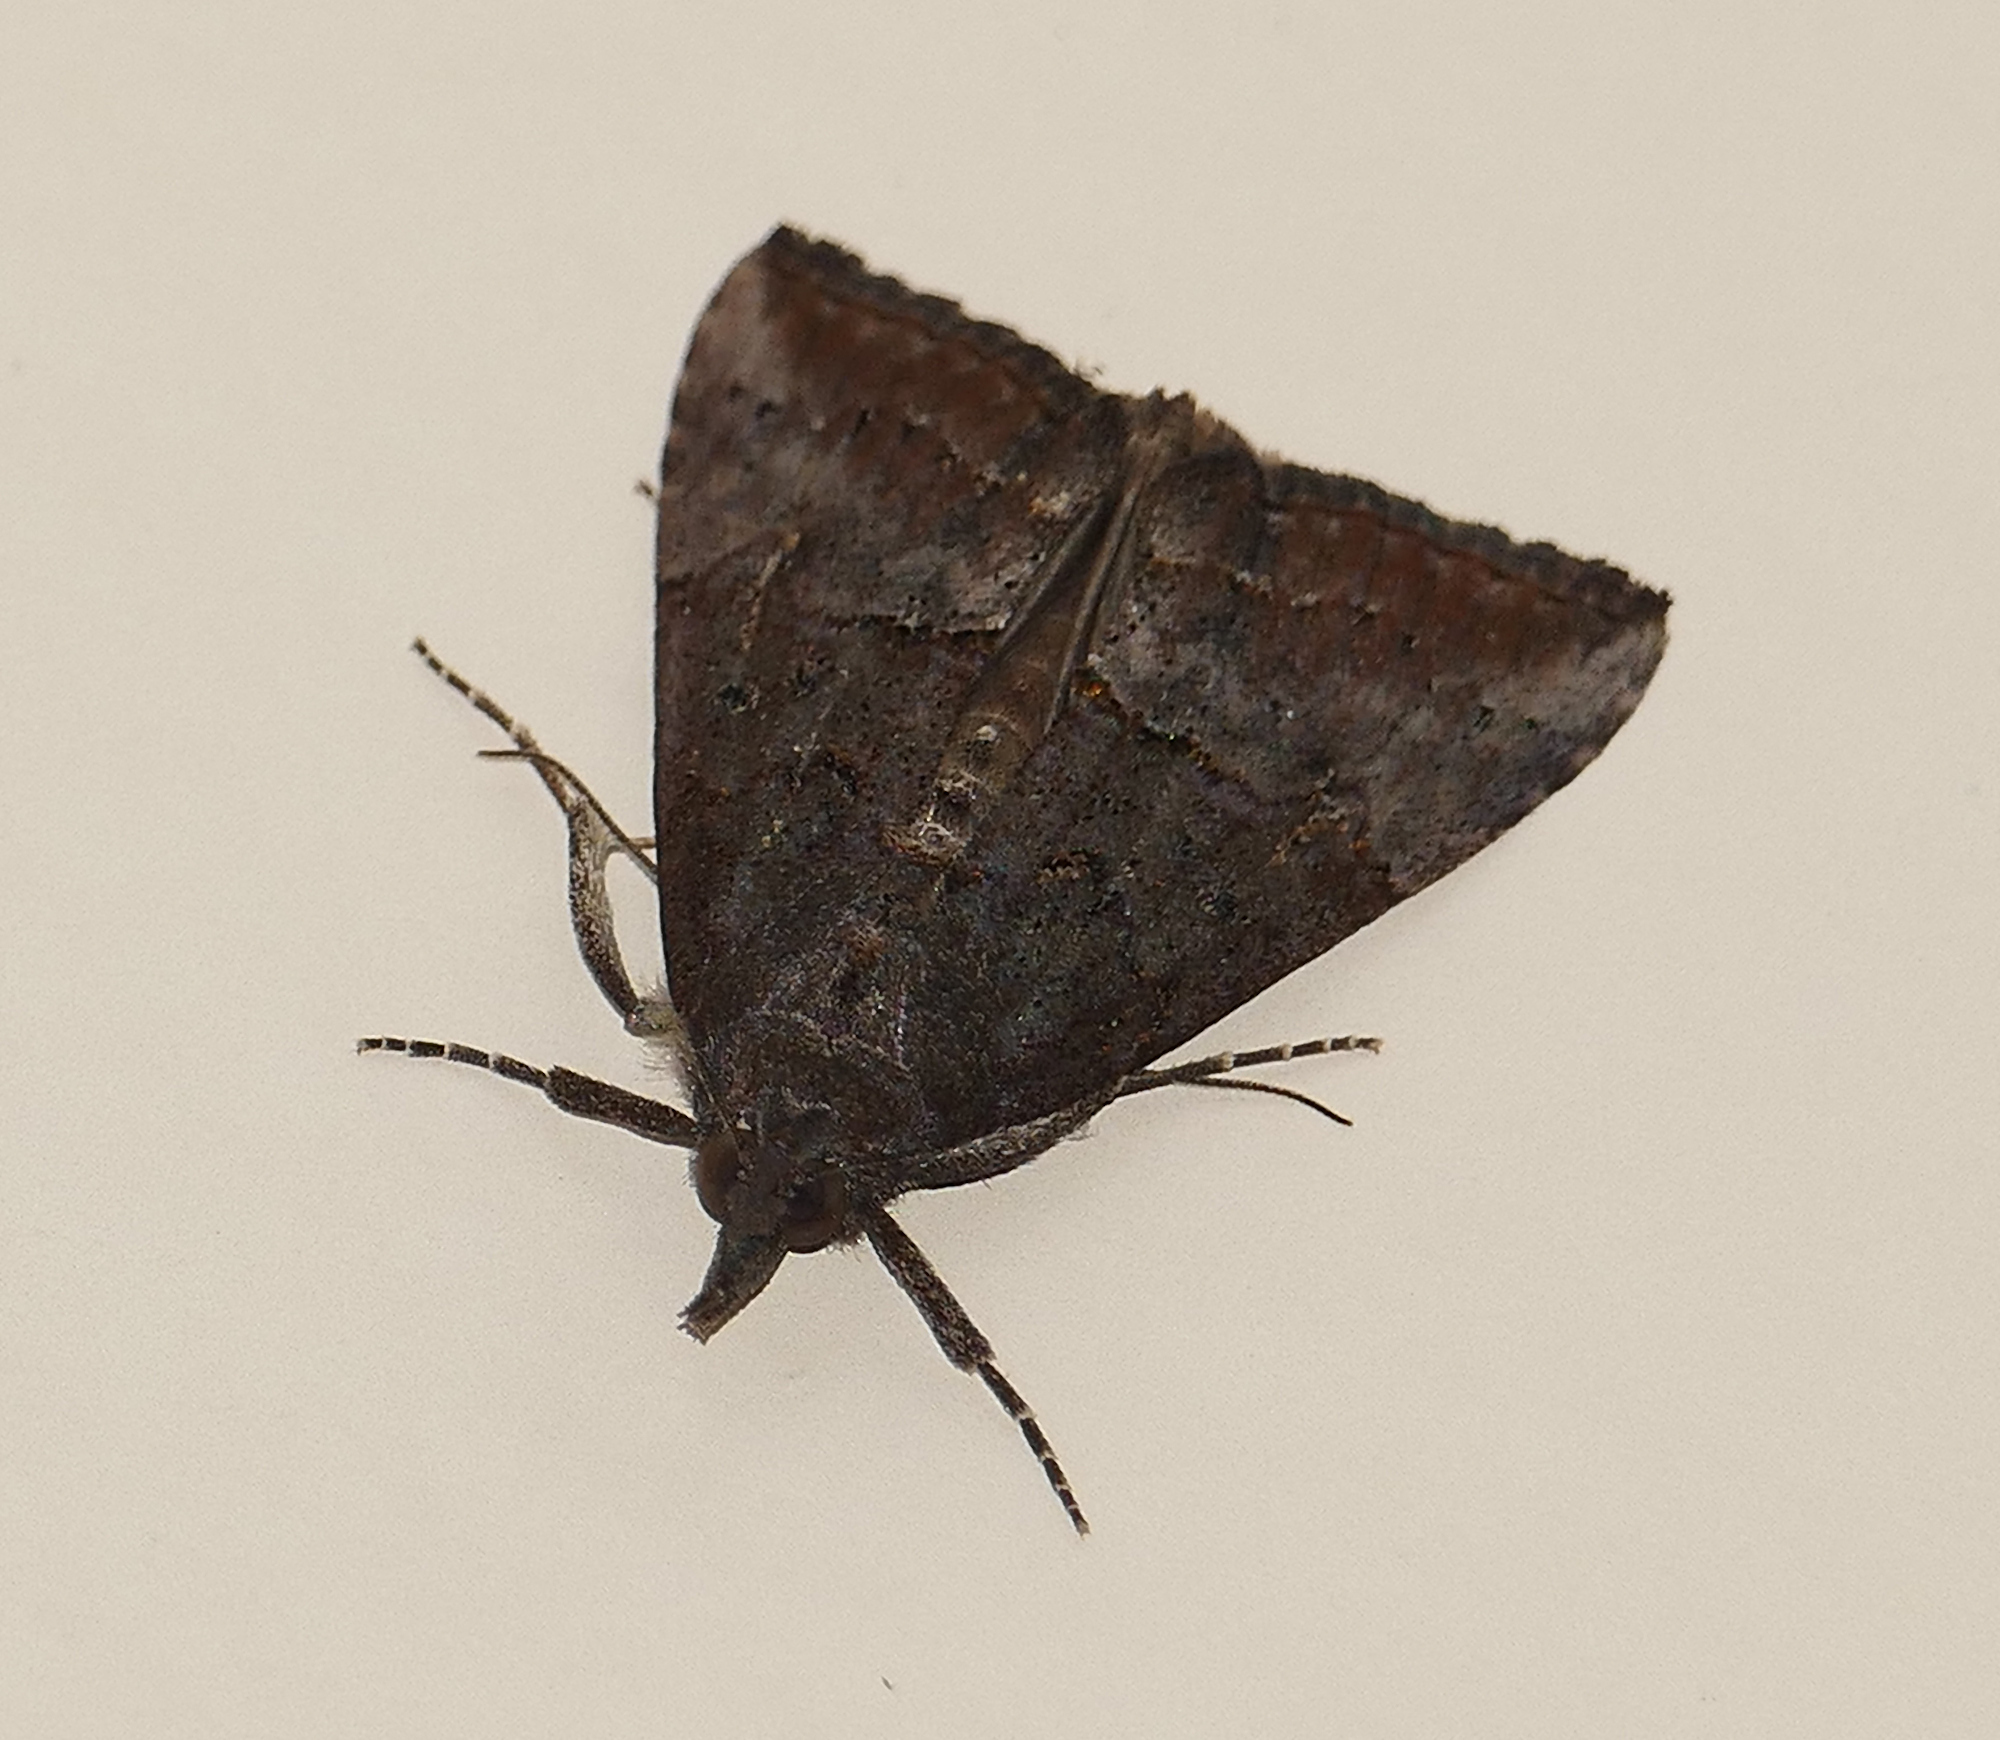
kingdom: Animalia
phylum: Arthropoda
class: Insecta
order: Lepidoptera
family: Erebidae
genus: Hypena
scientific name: Hypena scabra
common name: Green cloverworm
